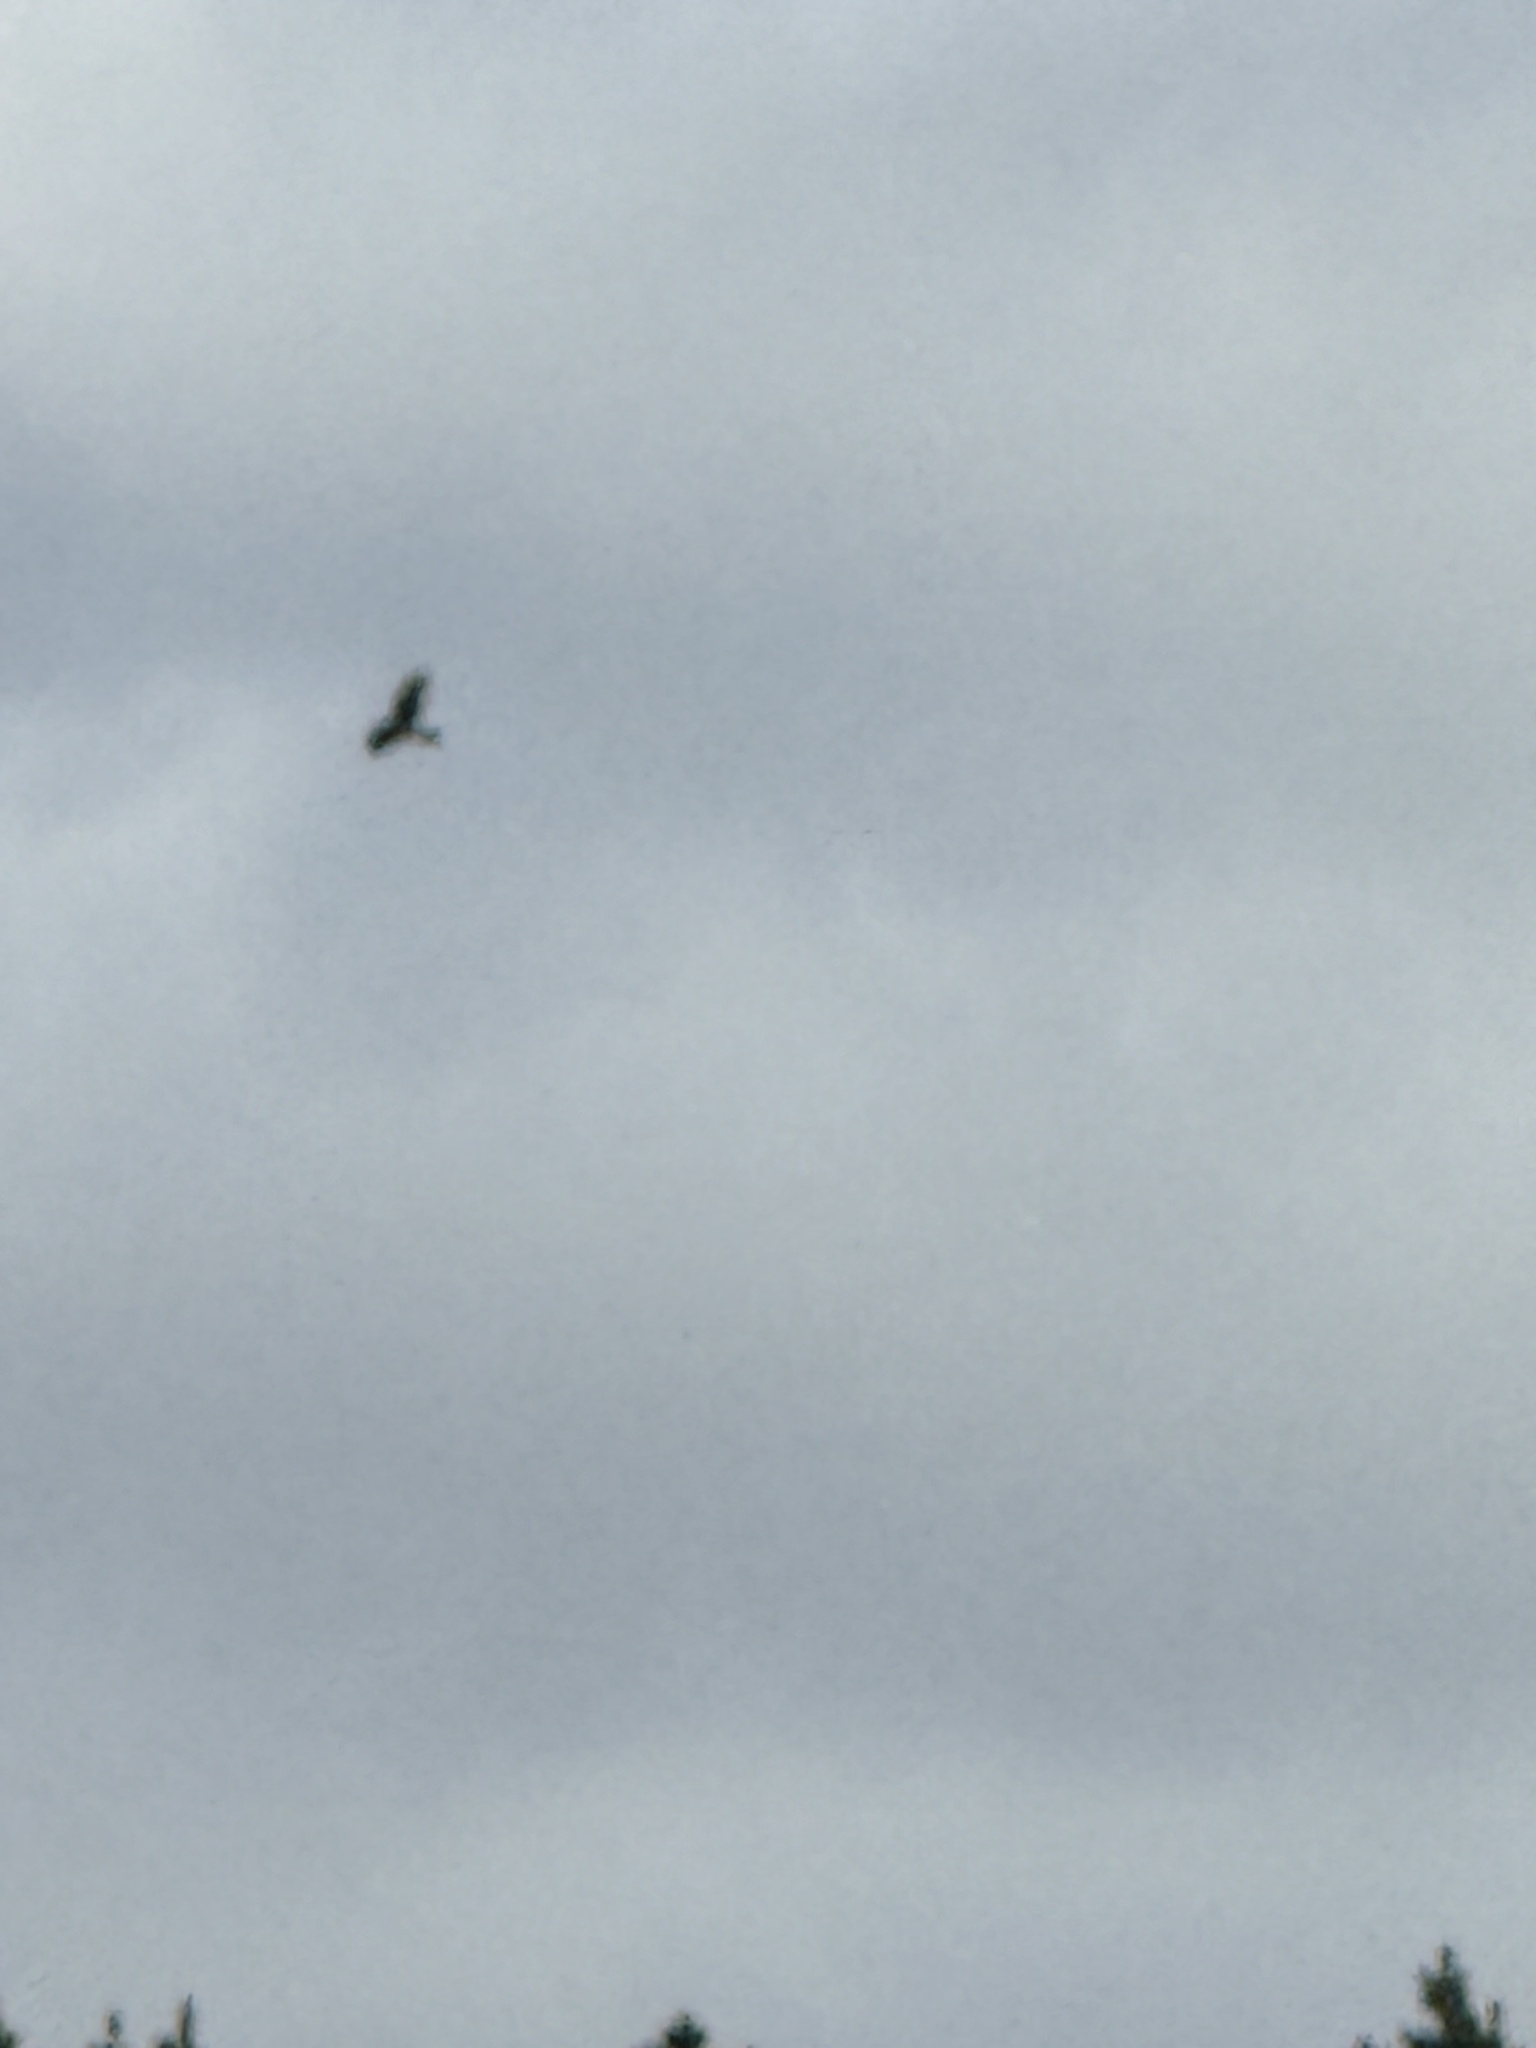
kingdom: Animalia
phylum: Chordata
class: Aves
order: Accipitriformes
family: Accipitridae
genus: Circus
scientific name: Circus approximans
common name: Swamp harrier
